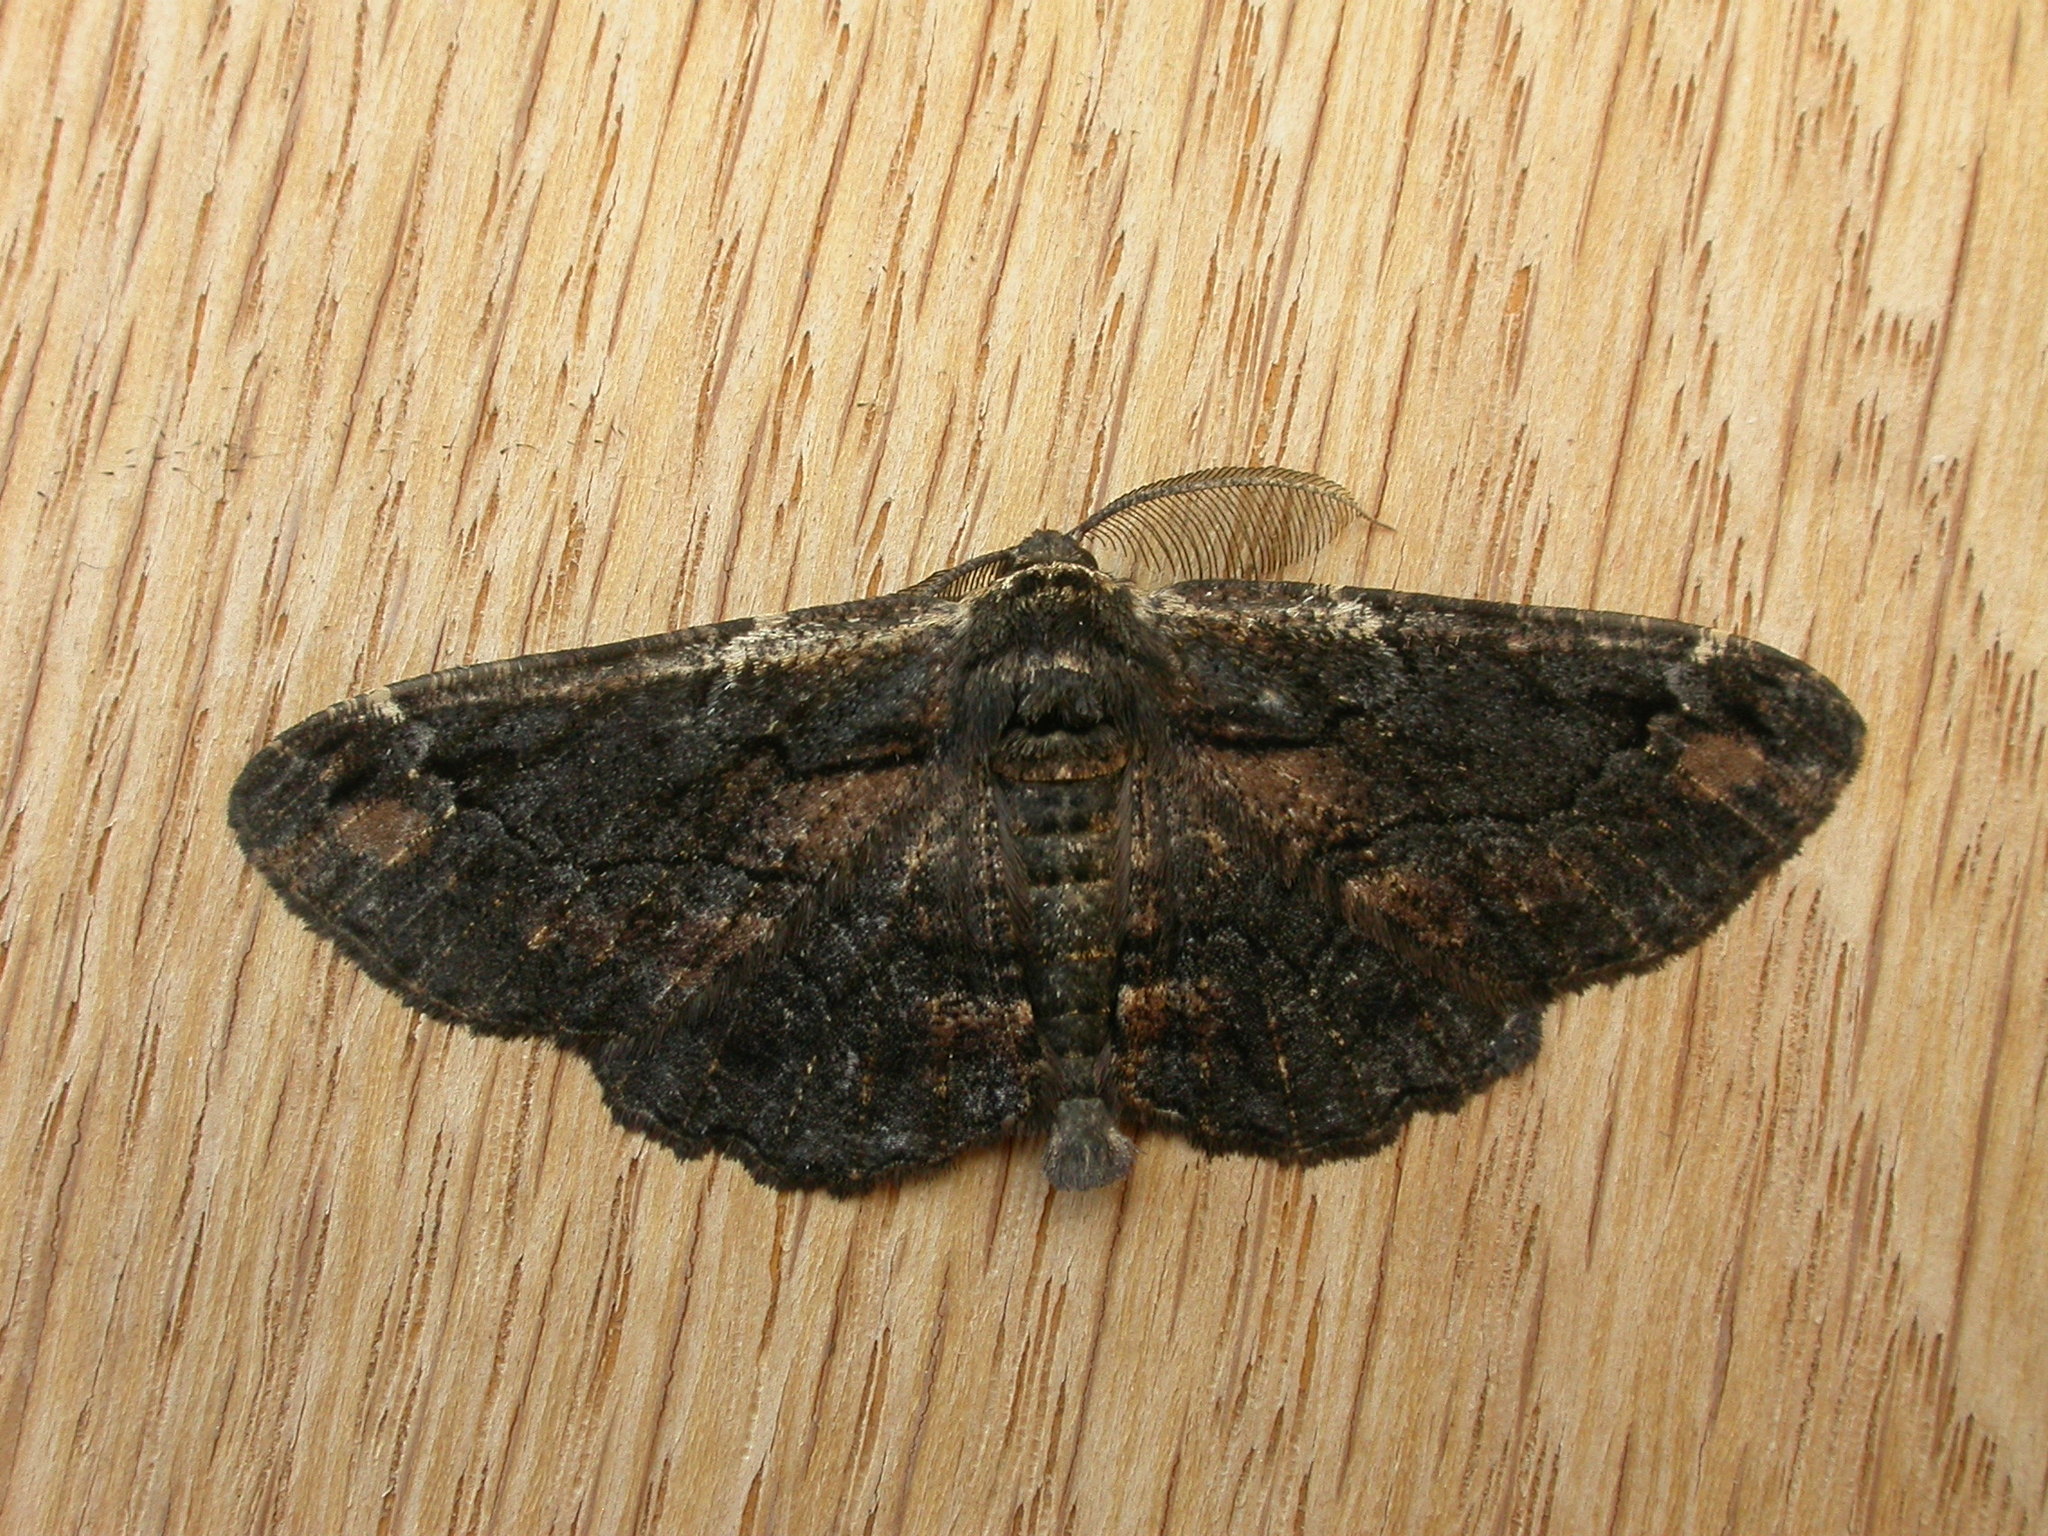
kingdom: Animalia
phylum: Arthropoda
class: Insecta
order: Lepidoptera
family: Geometridae
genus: Pholodes
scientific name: Pholodes sinistraria
